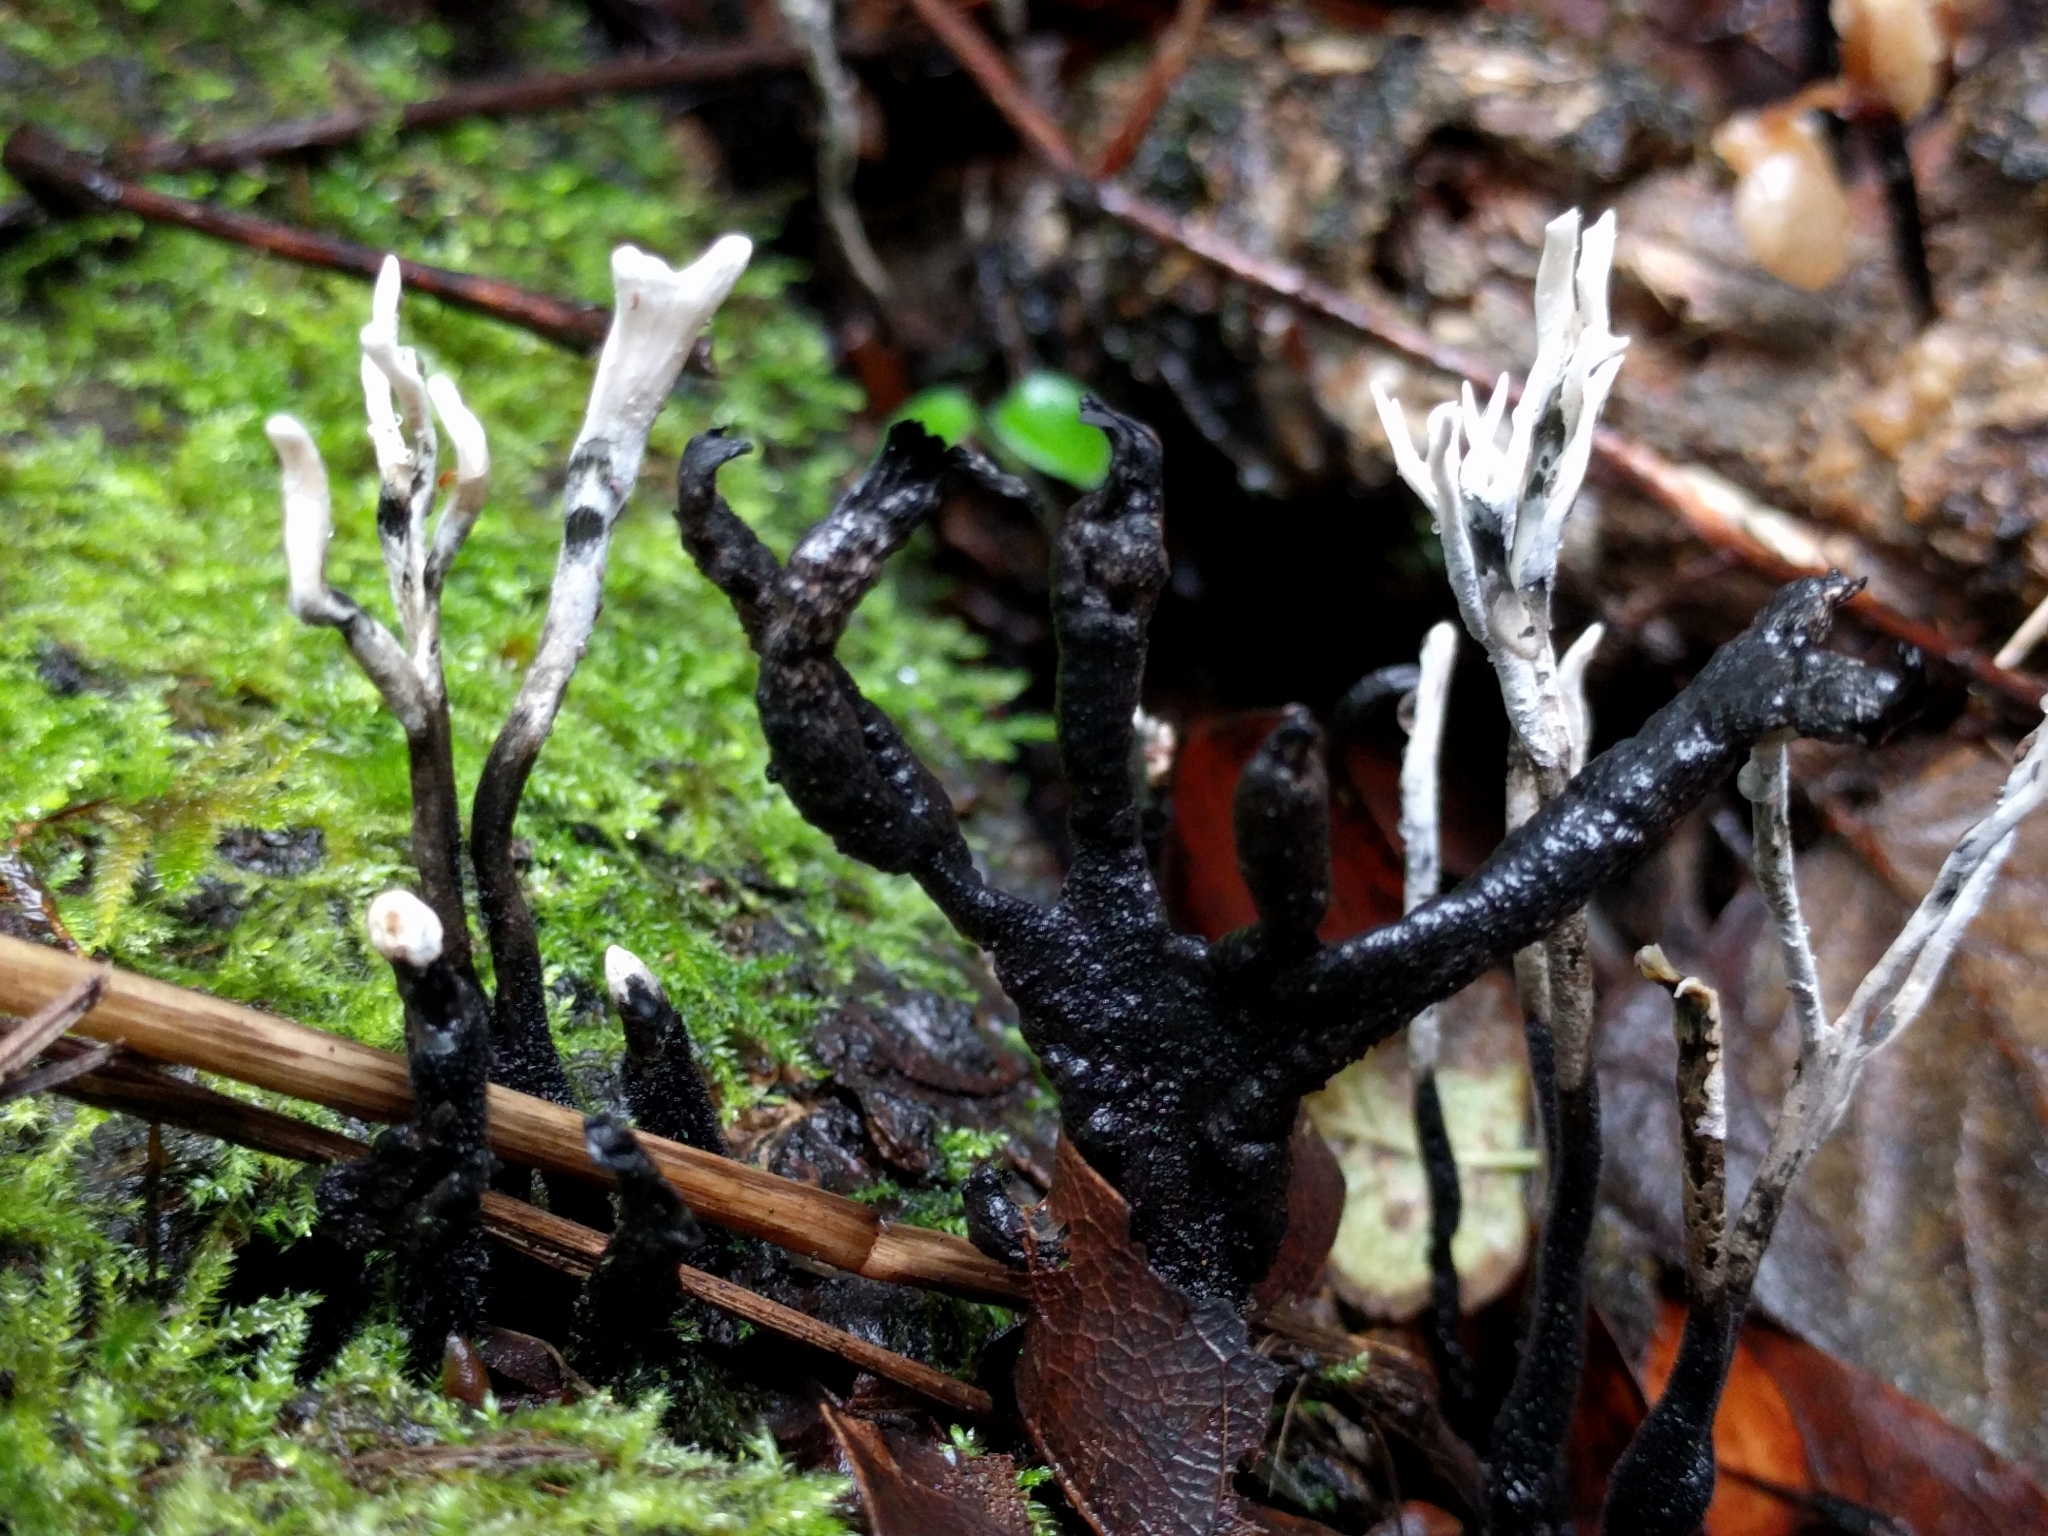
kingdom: Fungi
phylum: Ascomycota
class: Sordariomycetes
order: Xylariales
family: Xylariaceae
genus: Xylaria
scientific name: Xylaria hypoxylon
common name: Candle-snuff fungus
